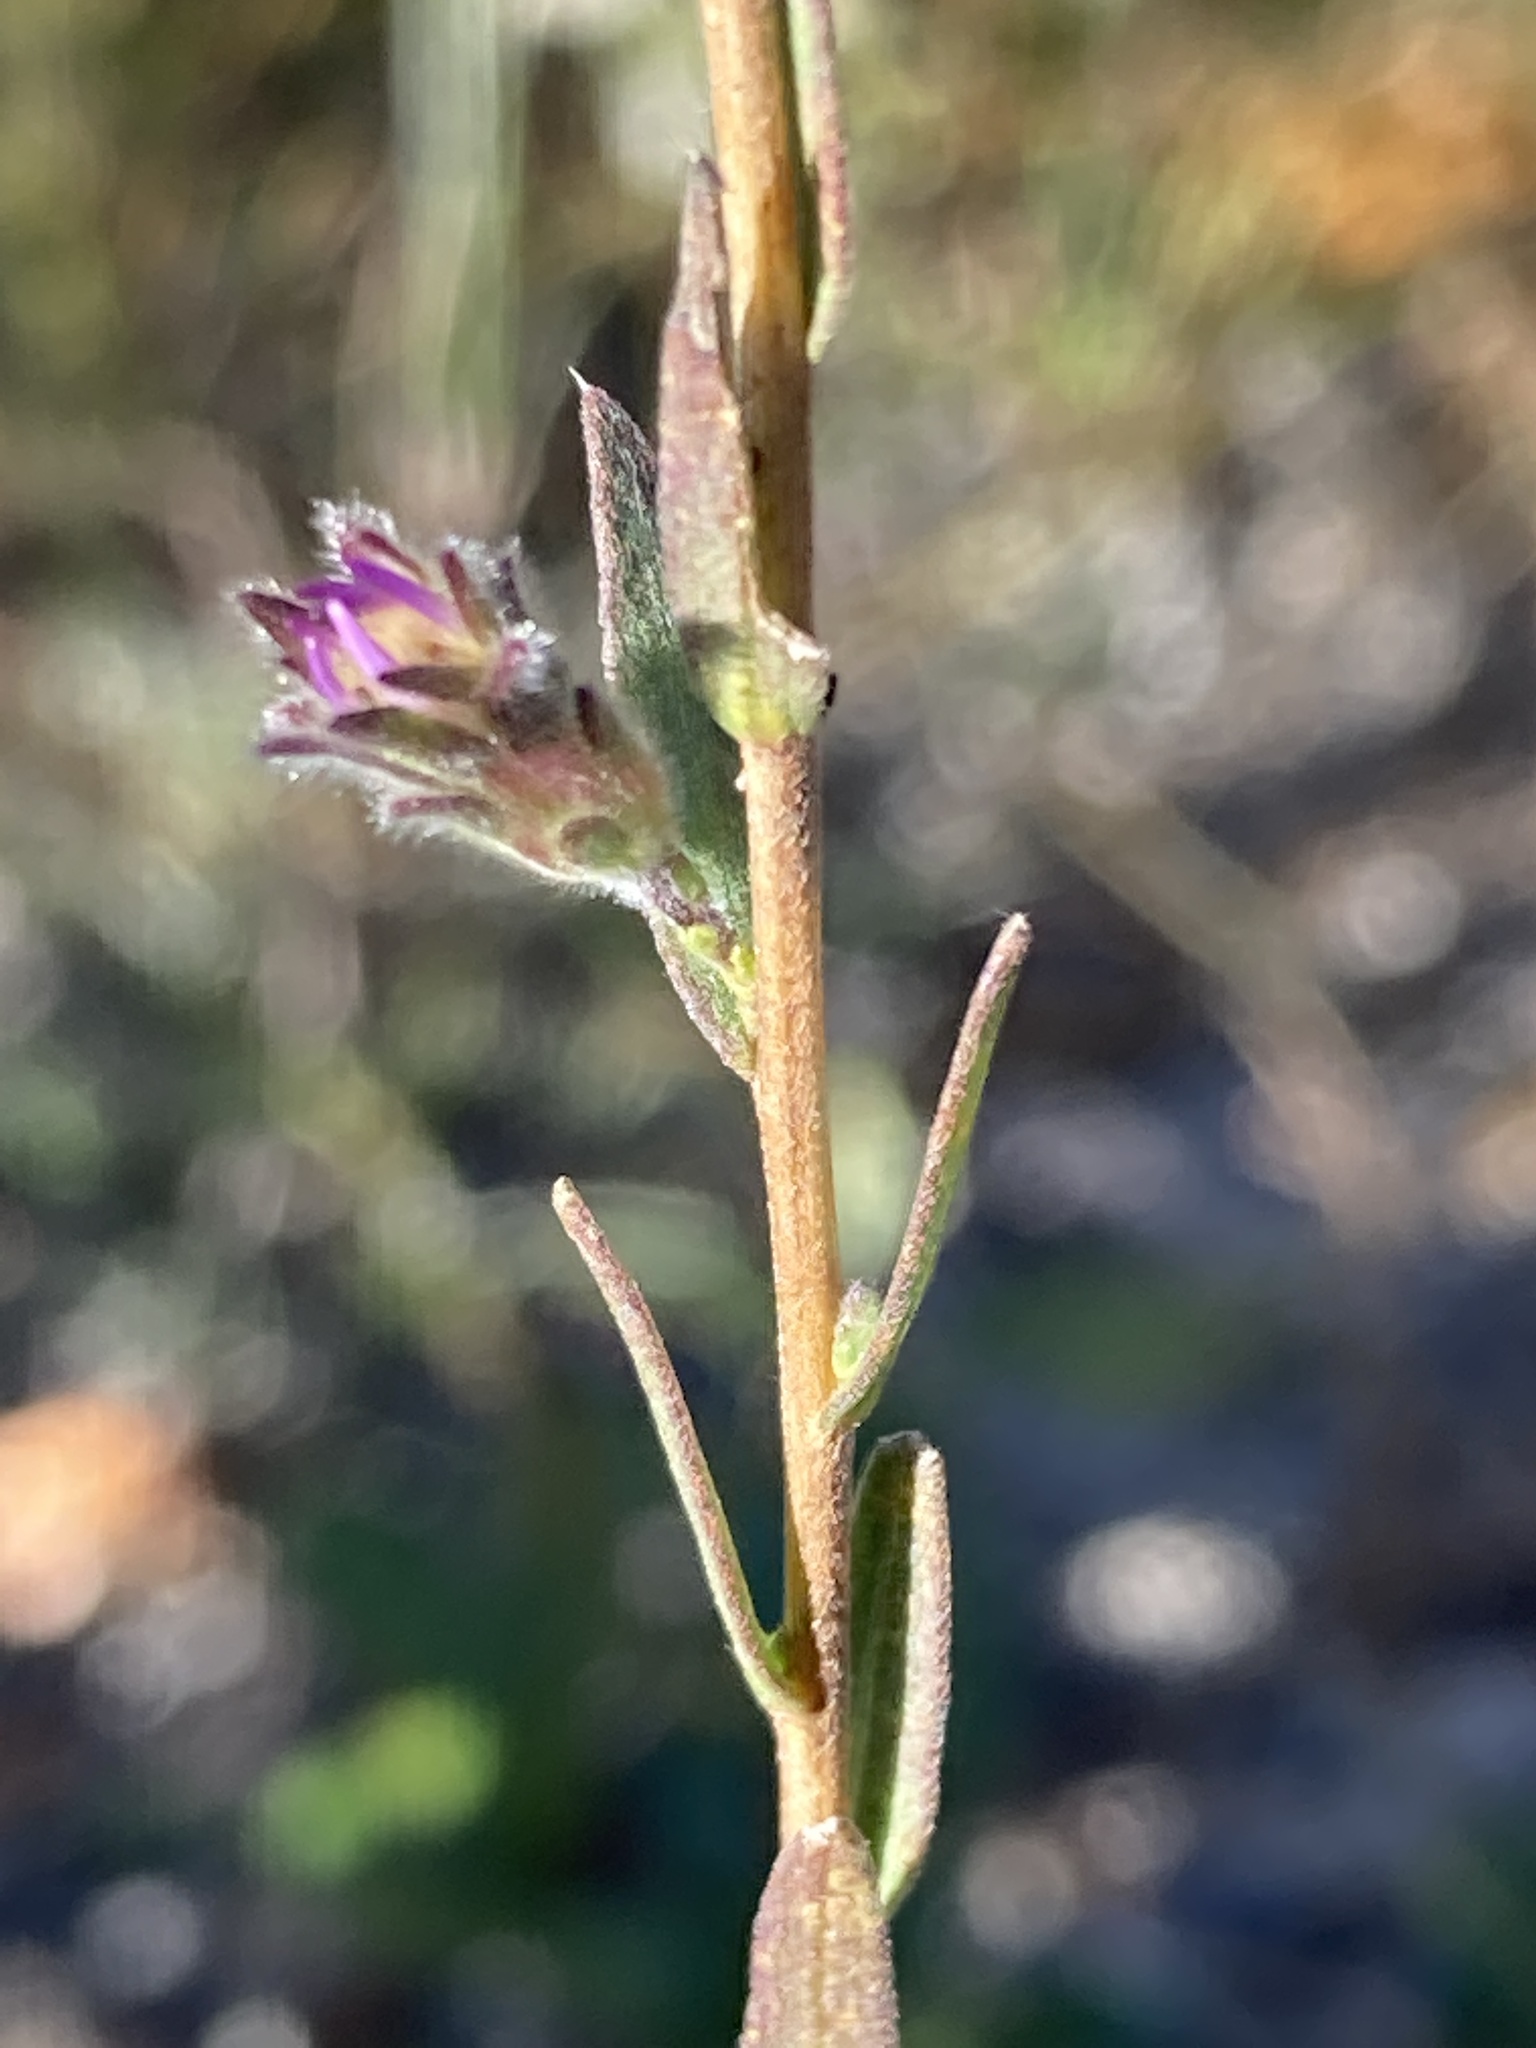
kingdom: Plantae
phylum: Tracheophyta
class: Magnoliopsida
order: Asterales
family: Asteraceae
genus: Symphyotrichum
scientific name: Symphyotrichum concolor
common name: Eastern silver aster
